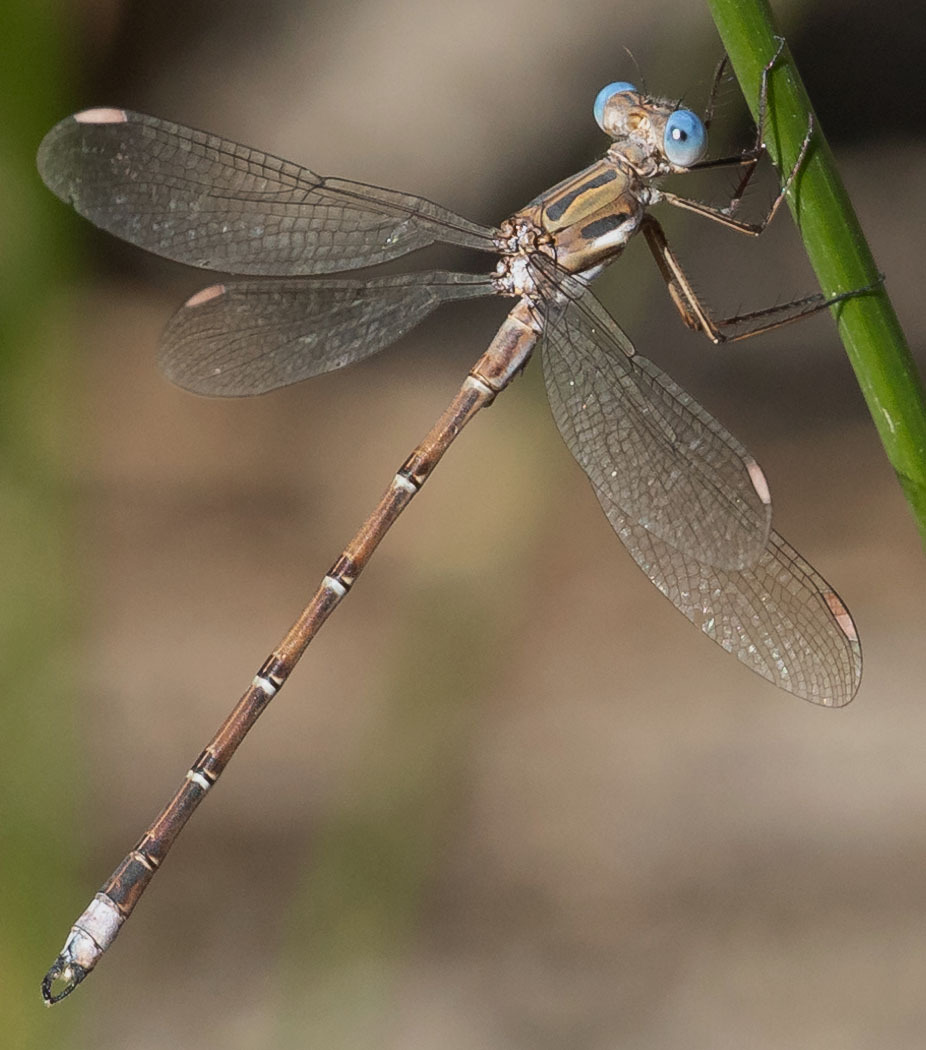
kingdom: Animalia
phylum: Arthropoda
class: Insecta
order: Odonata
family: Lestidae
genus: Archilestes
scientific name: Archilestes californicus
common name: California spreadwing
